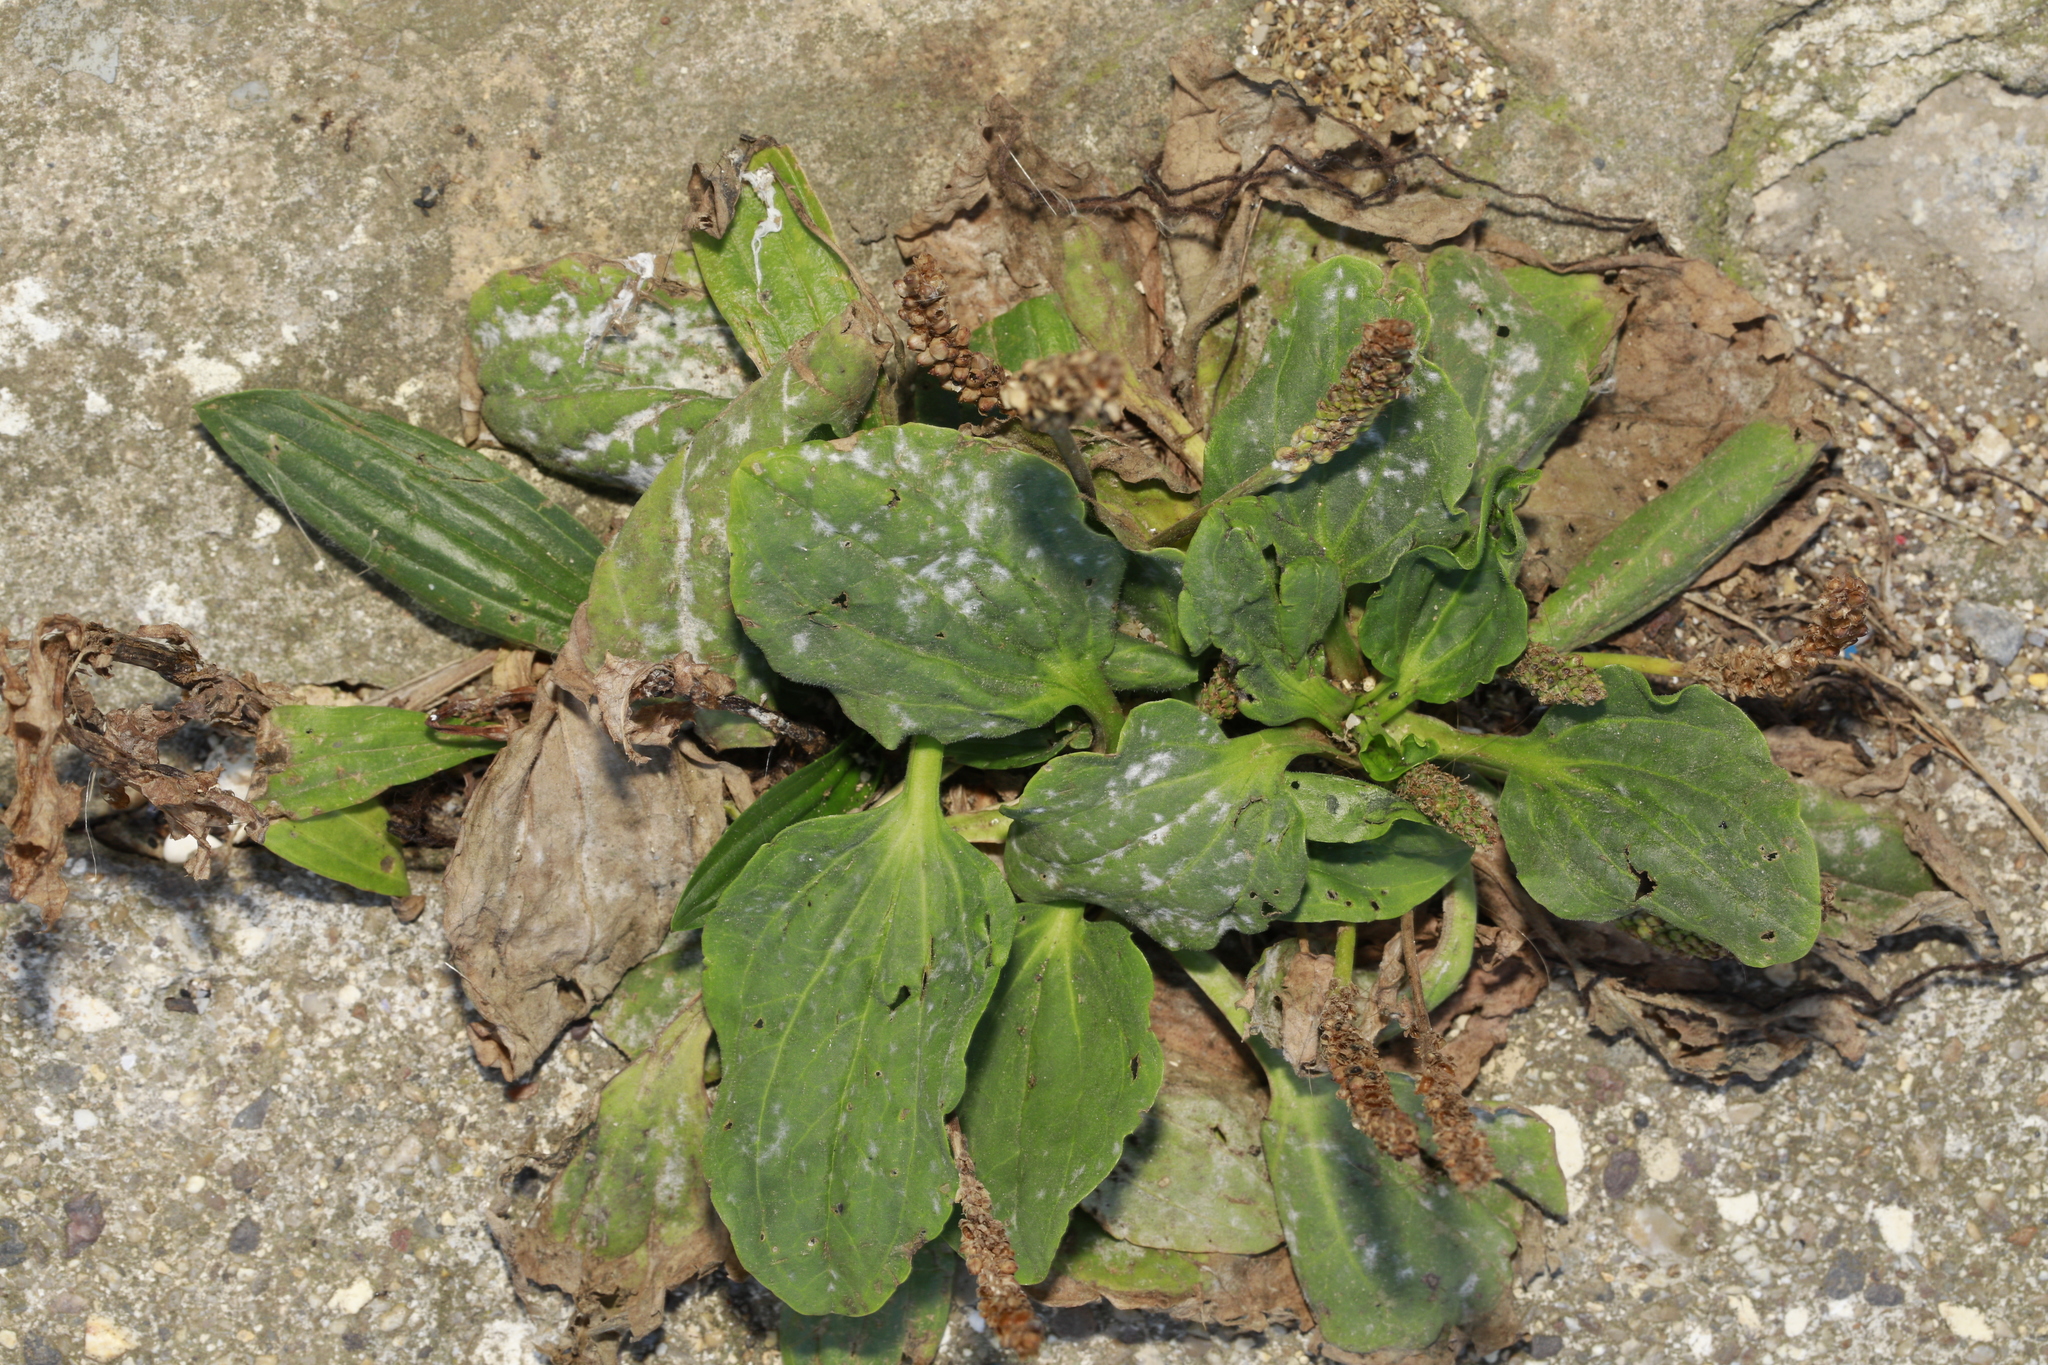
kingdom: Plantae
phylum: Tracheophyta
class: Magnoliopsida
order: Lamiales
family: Plantaginaceae
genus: Plantago
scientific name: Plantago major
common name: Common plantain
